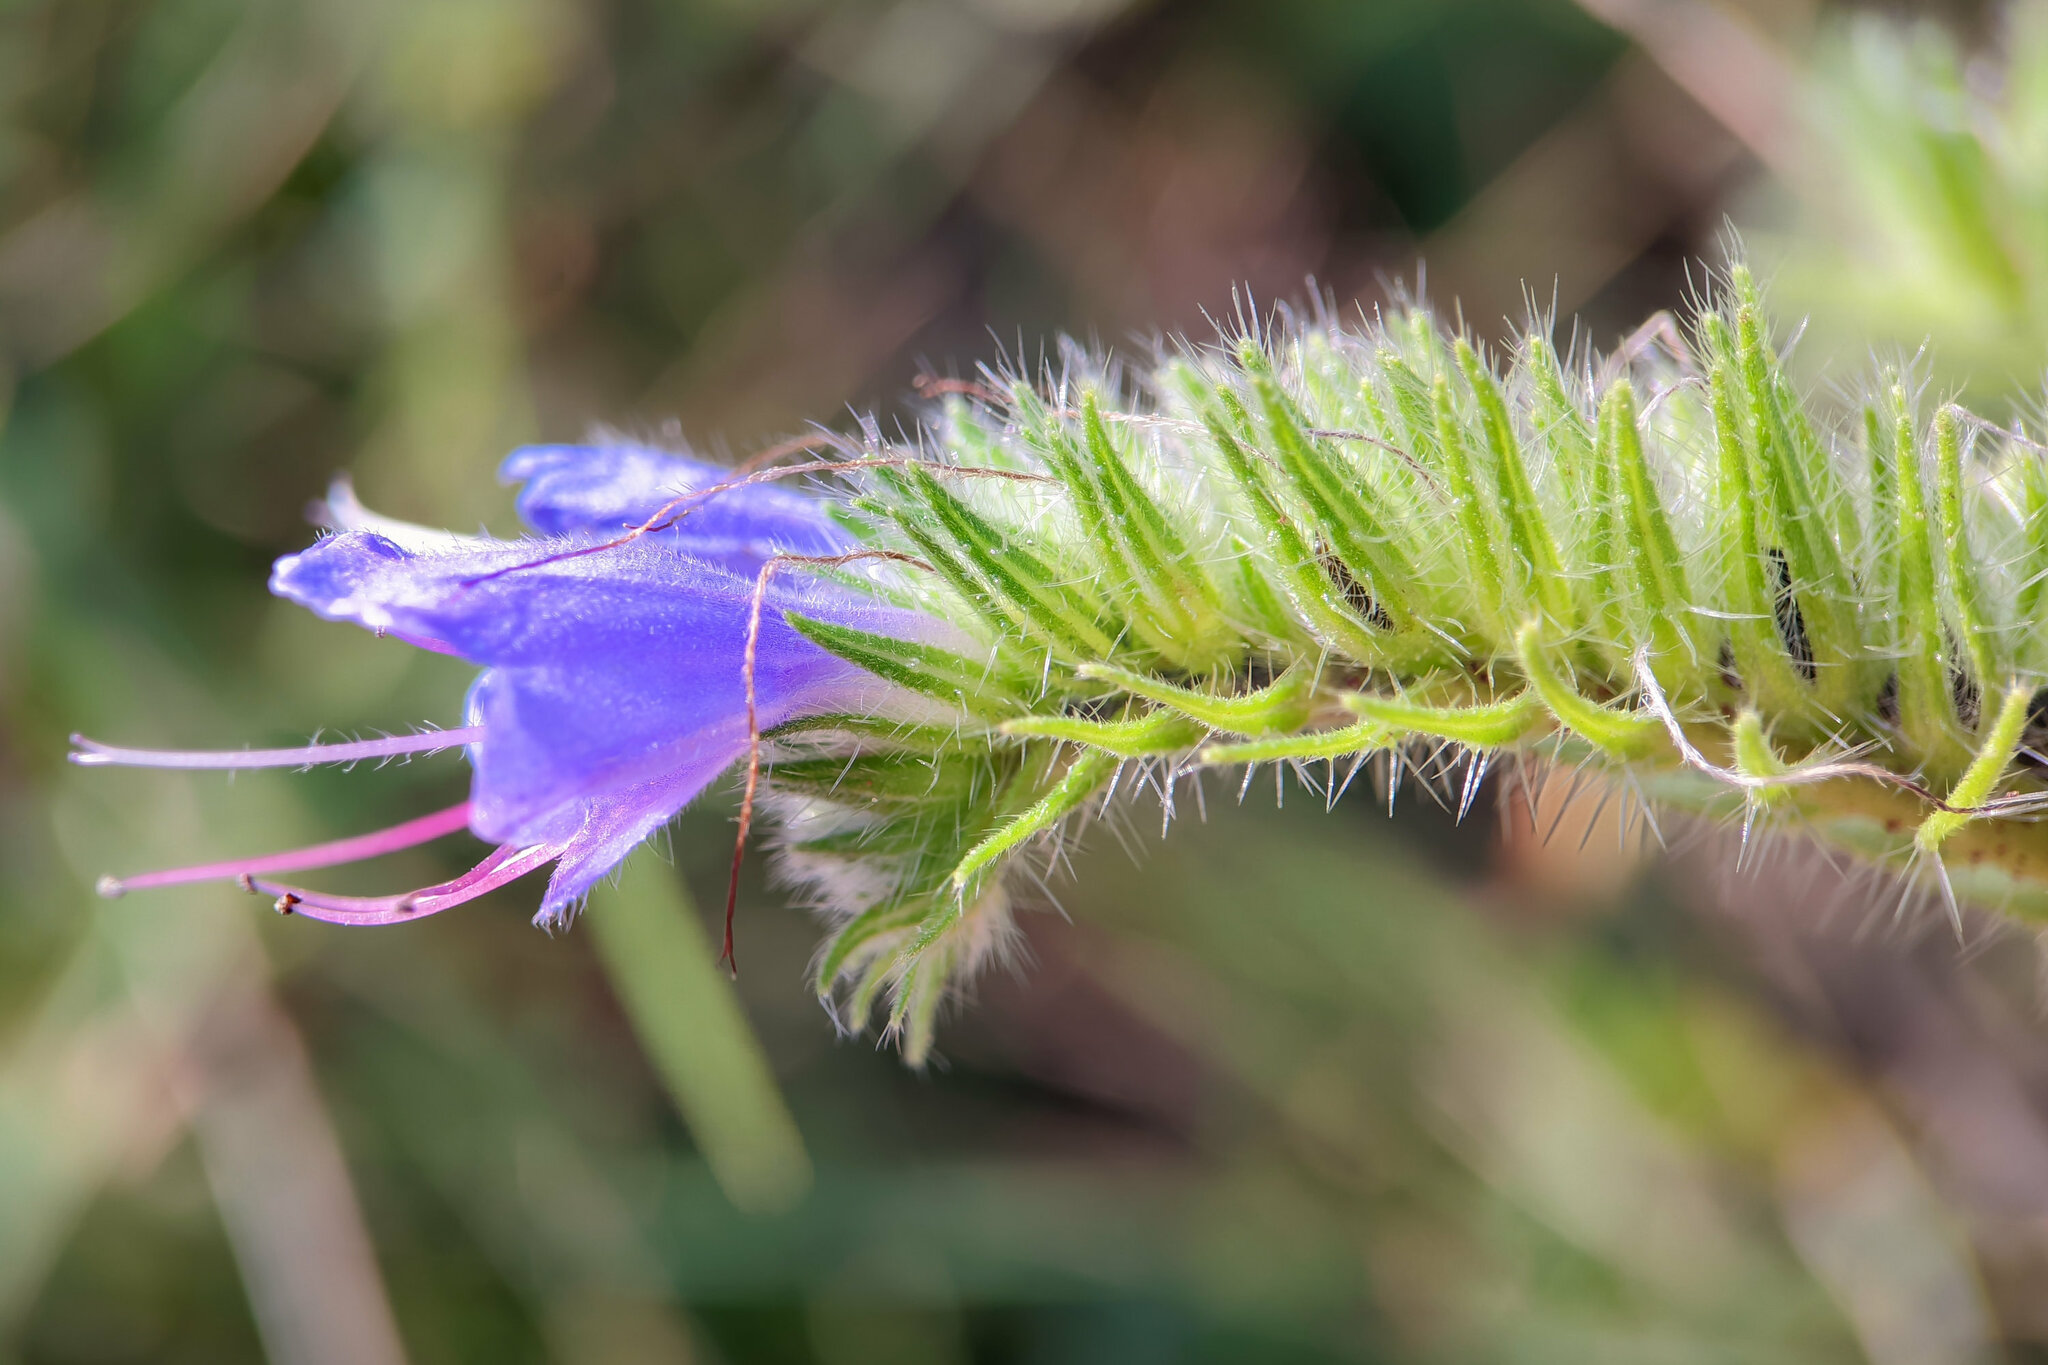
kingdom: Plantae
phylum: Tracheophyta
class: Magnoliopsida
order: Boraginales
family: Boraginaceae
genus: Echium
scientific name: Echium vulgare
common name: Common viper's bugloss
